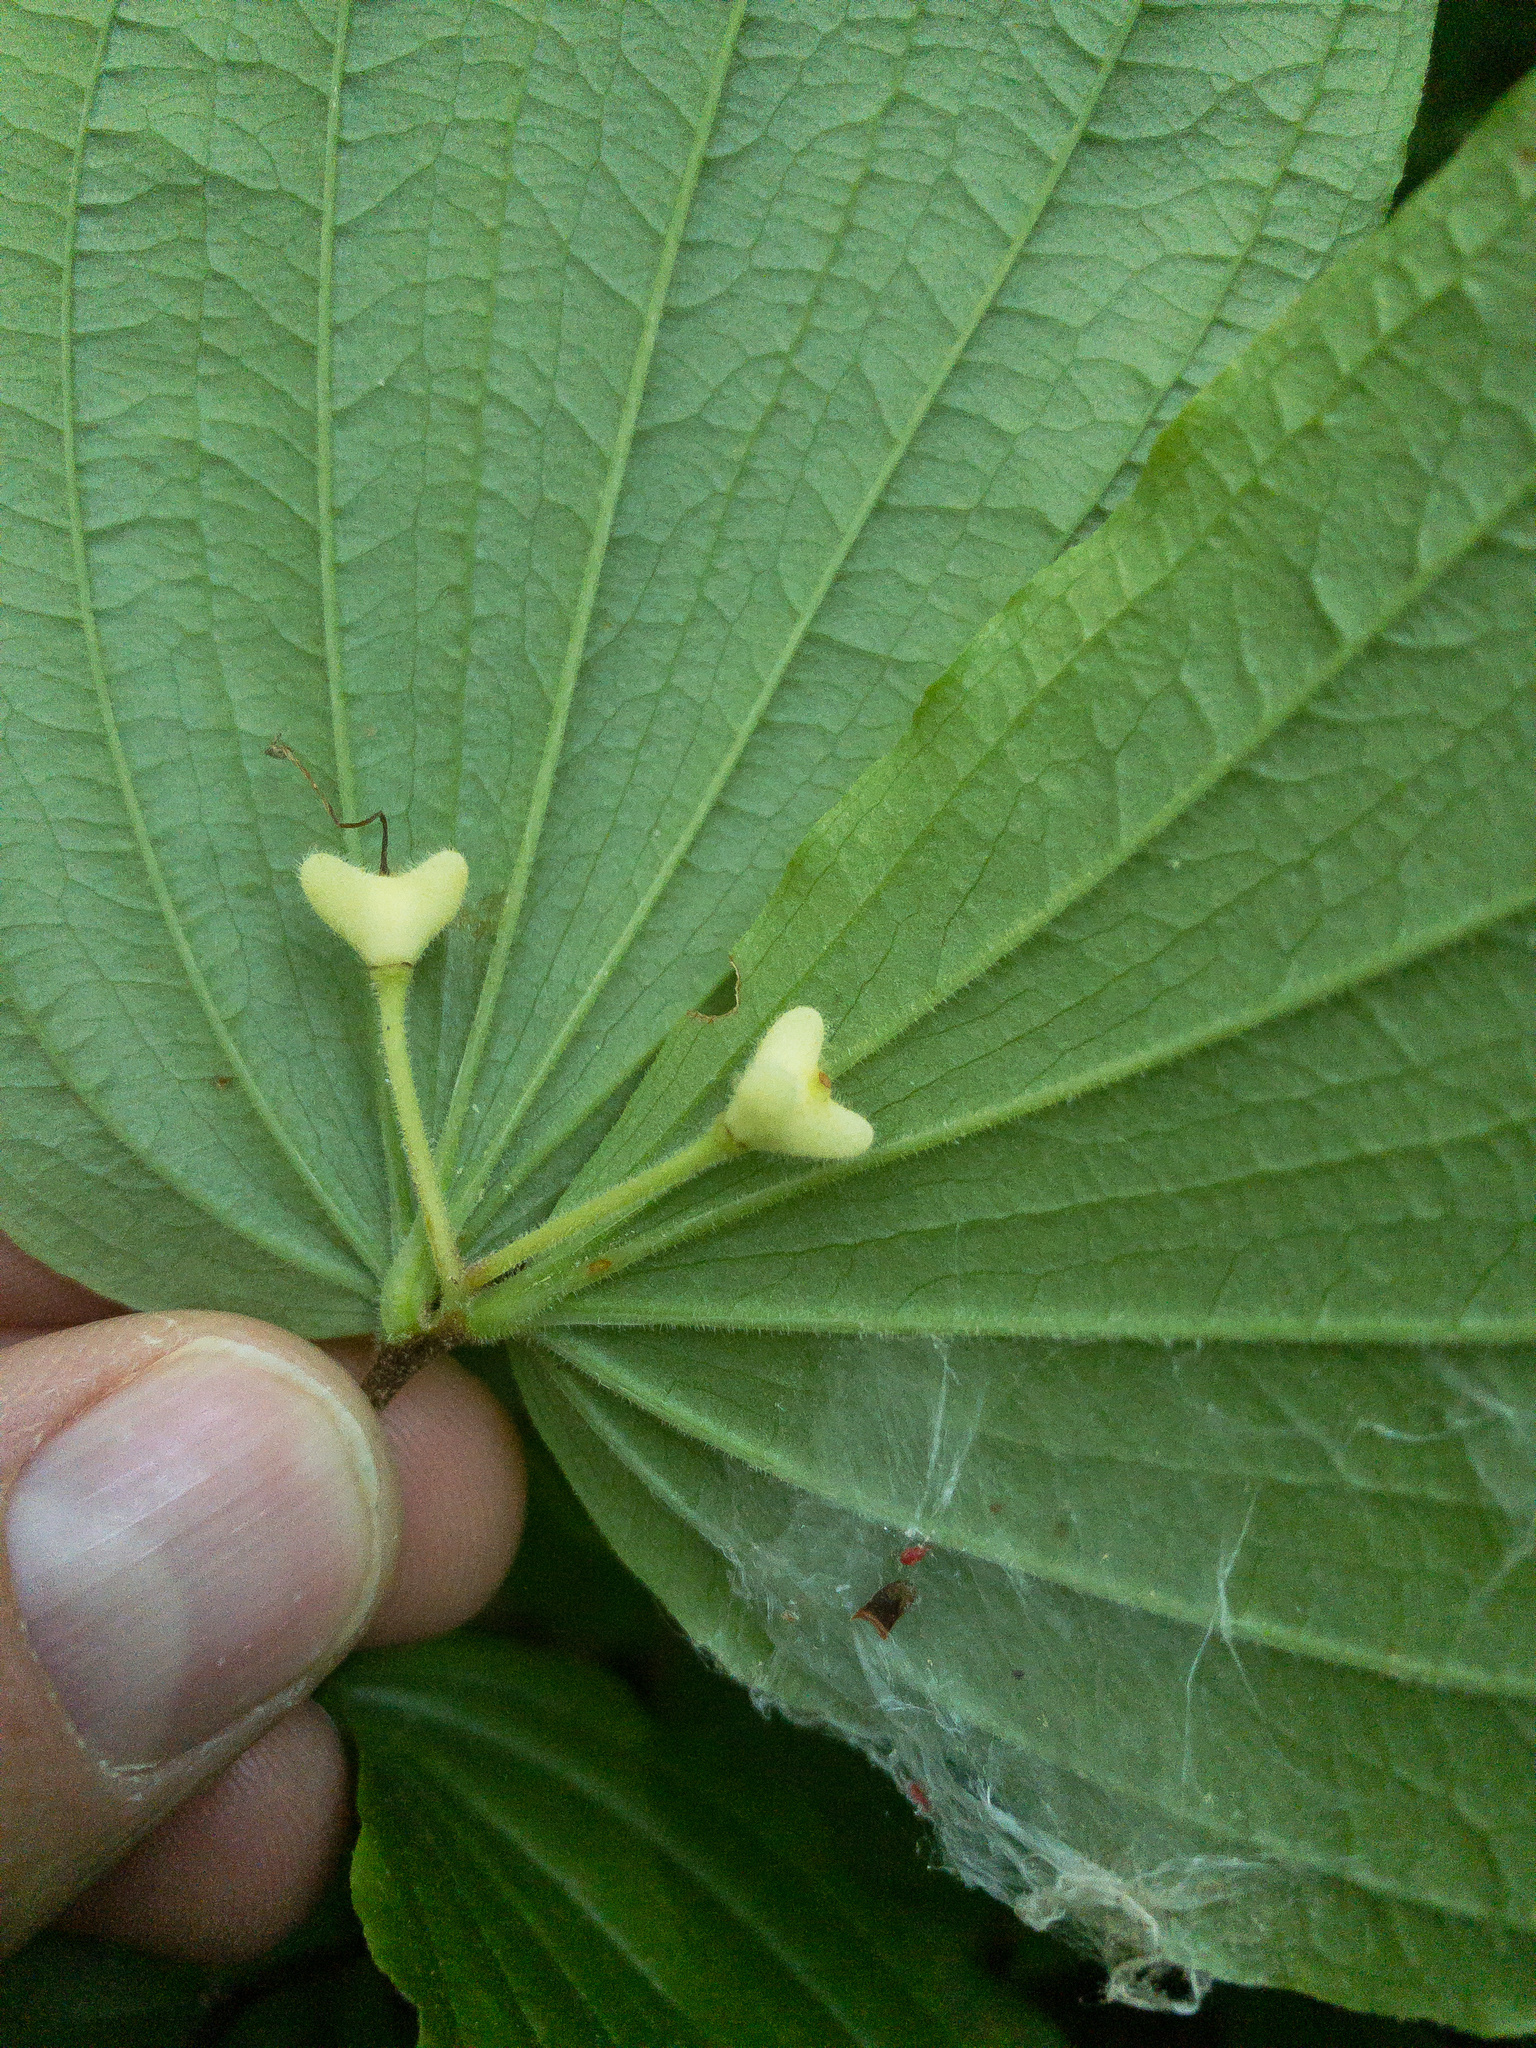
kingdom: Plantae
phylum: Tracheophyta
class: Liliopsida
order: Liliales
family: Liliaceae
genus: Prosartes
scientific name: Prosartes maculata
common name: Yellow mandarin
